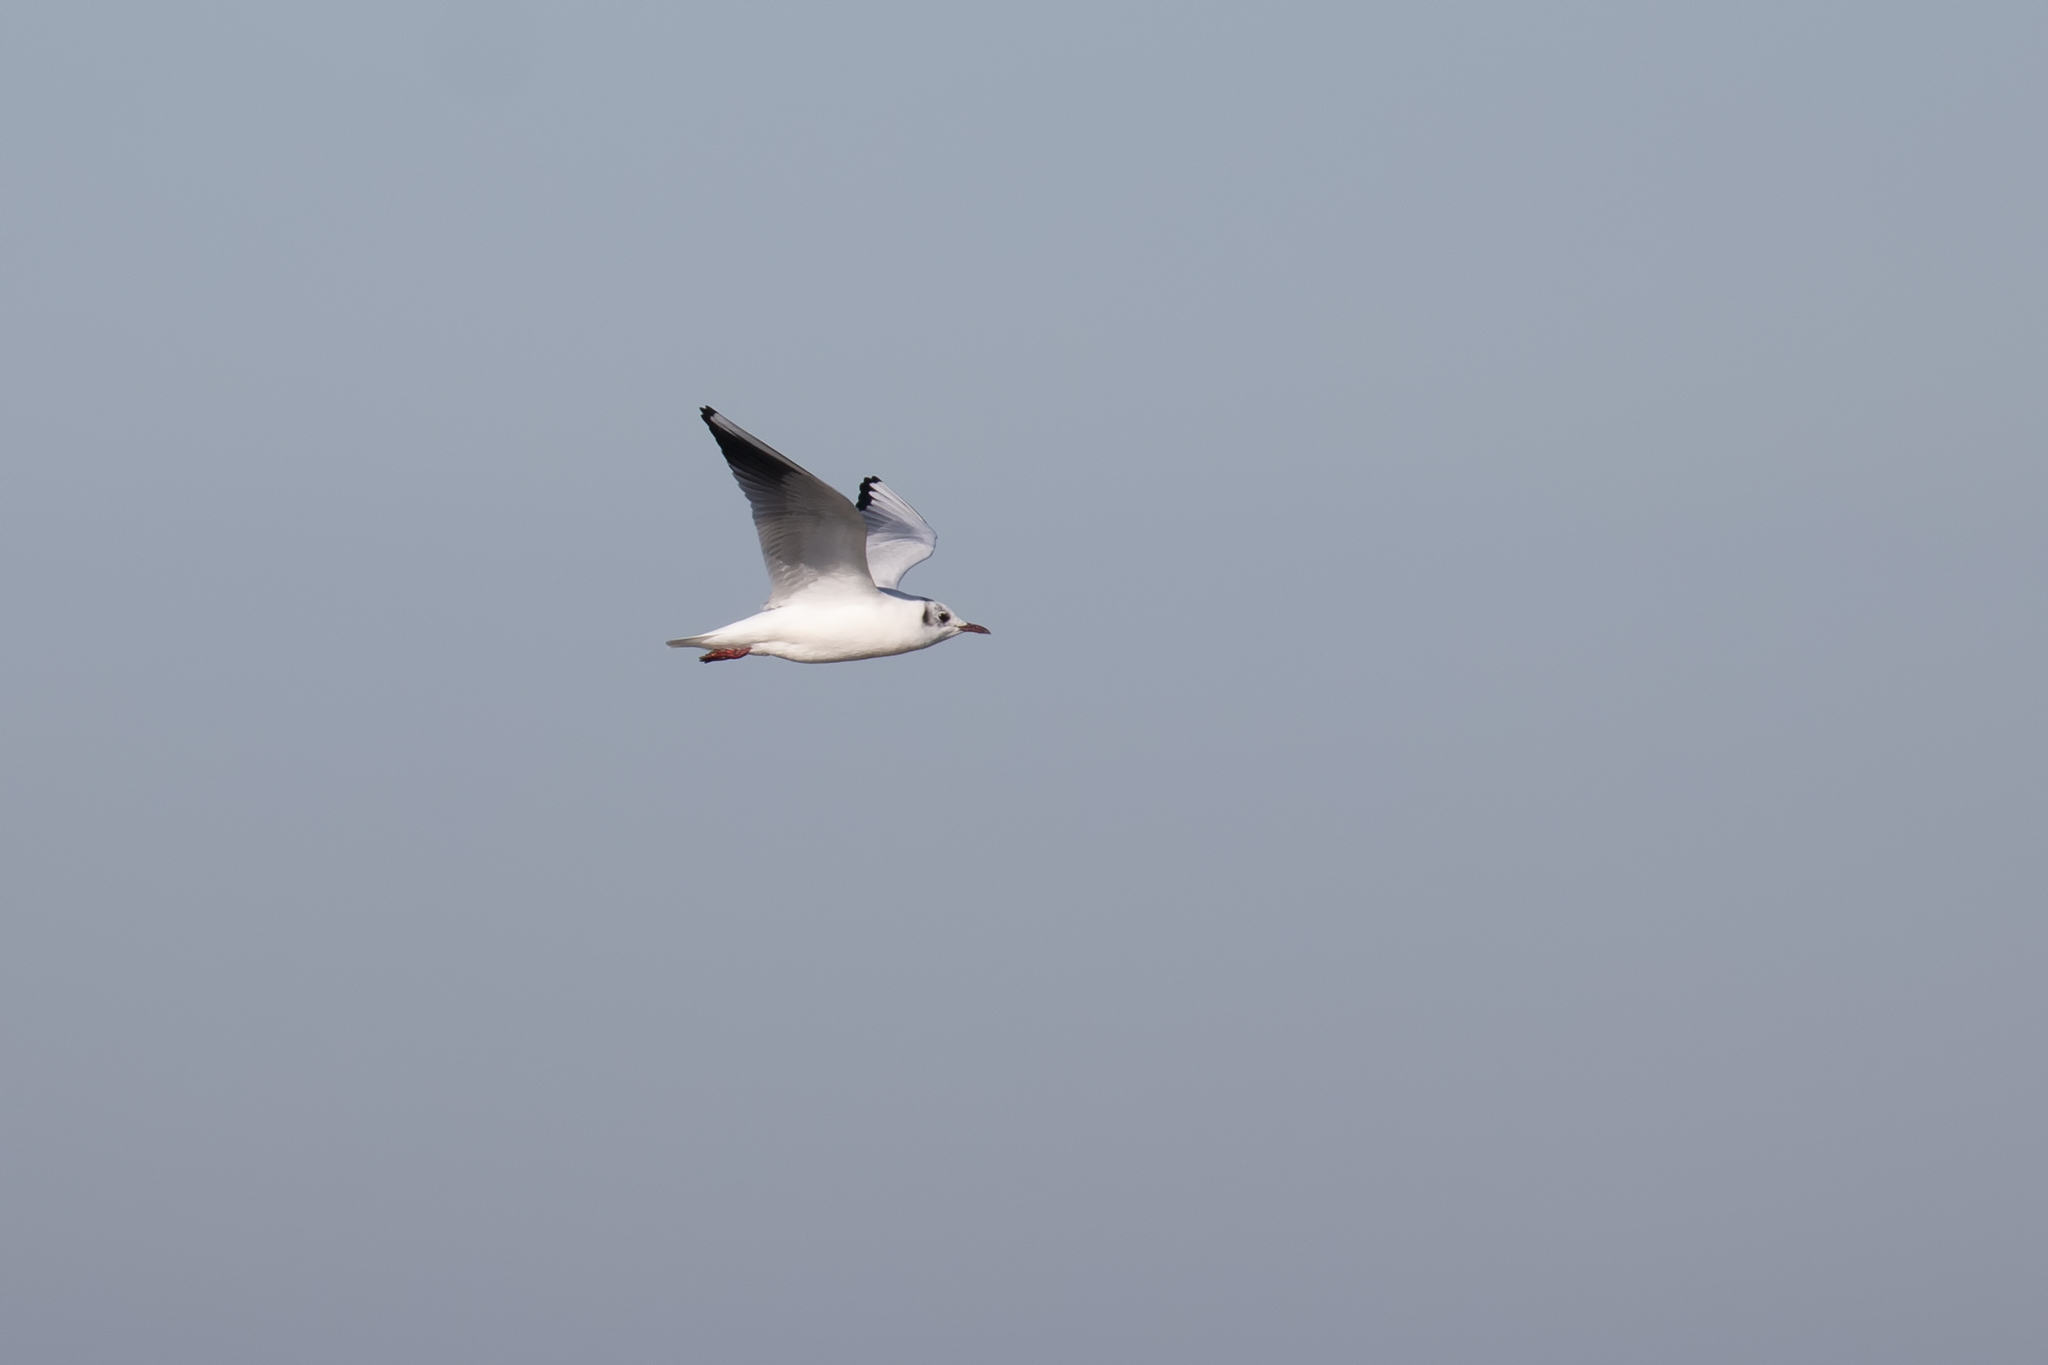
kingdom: Animalia
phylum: Chordata
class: Aves
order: Charadriiformes
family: Laridae
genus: Chroicocephalus
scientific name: Chroicocephalus ridibundus
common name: Black-headed gull
